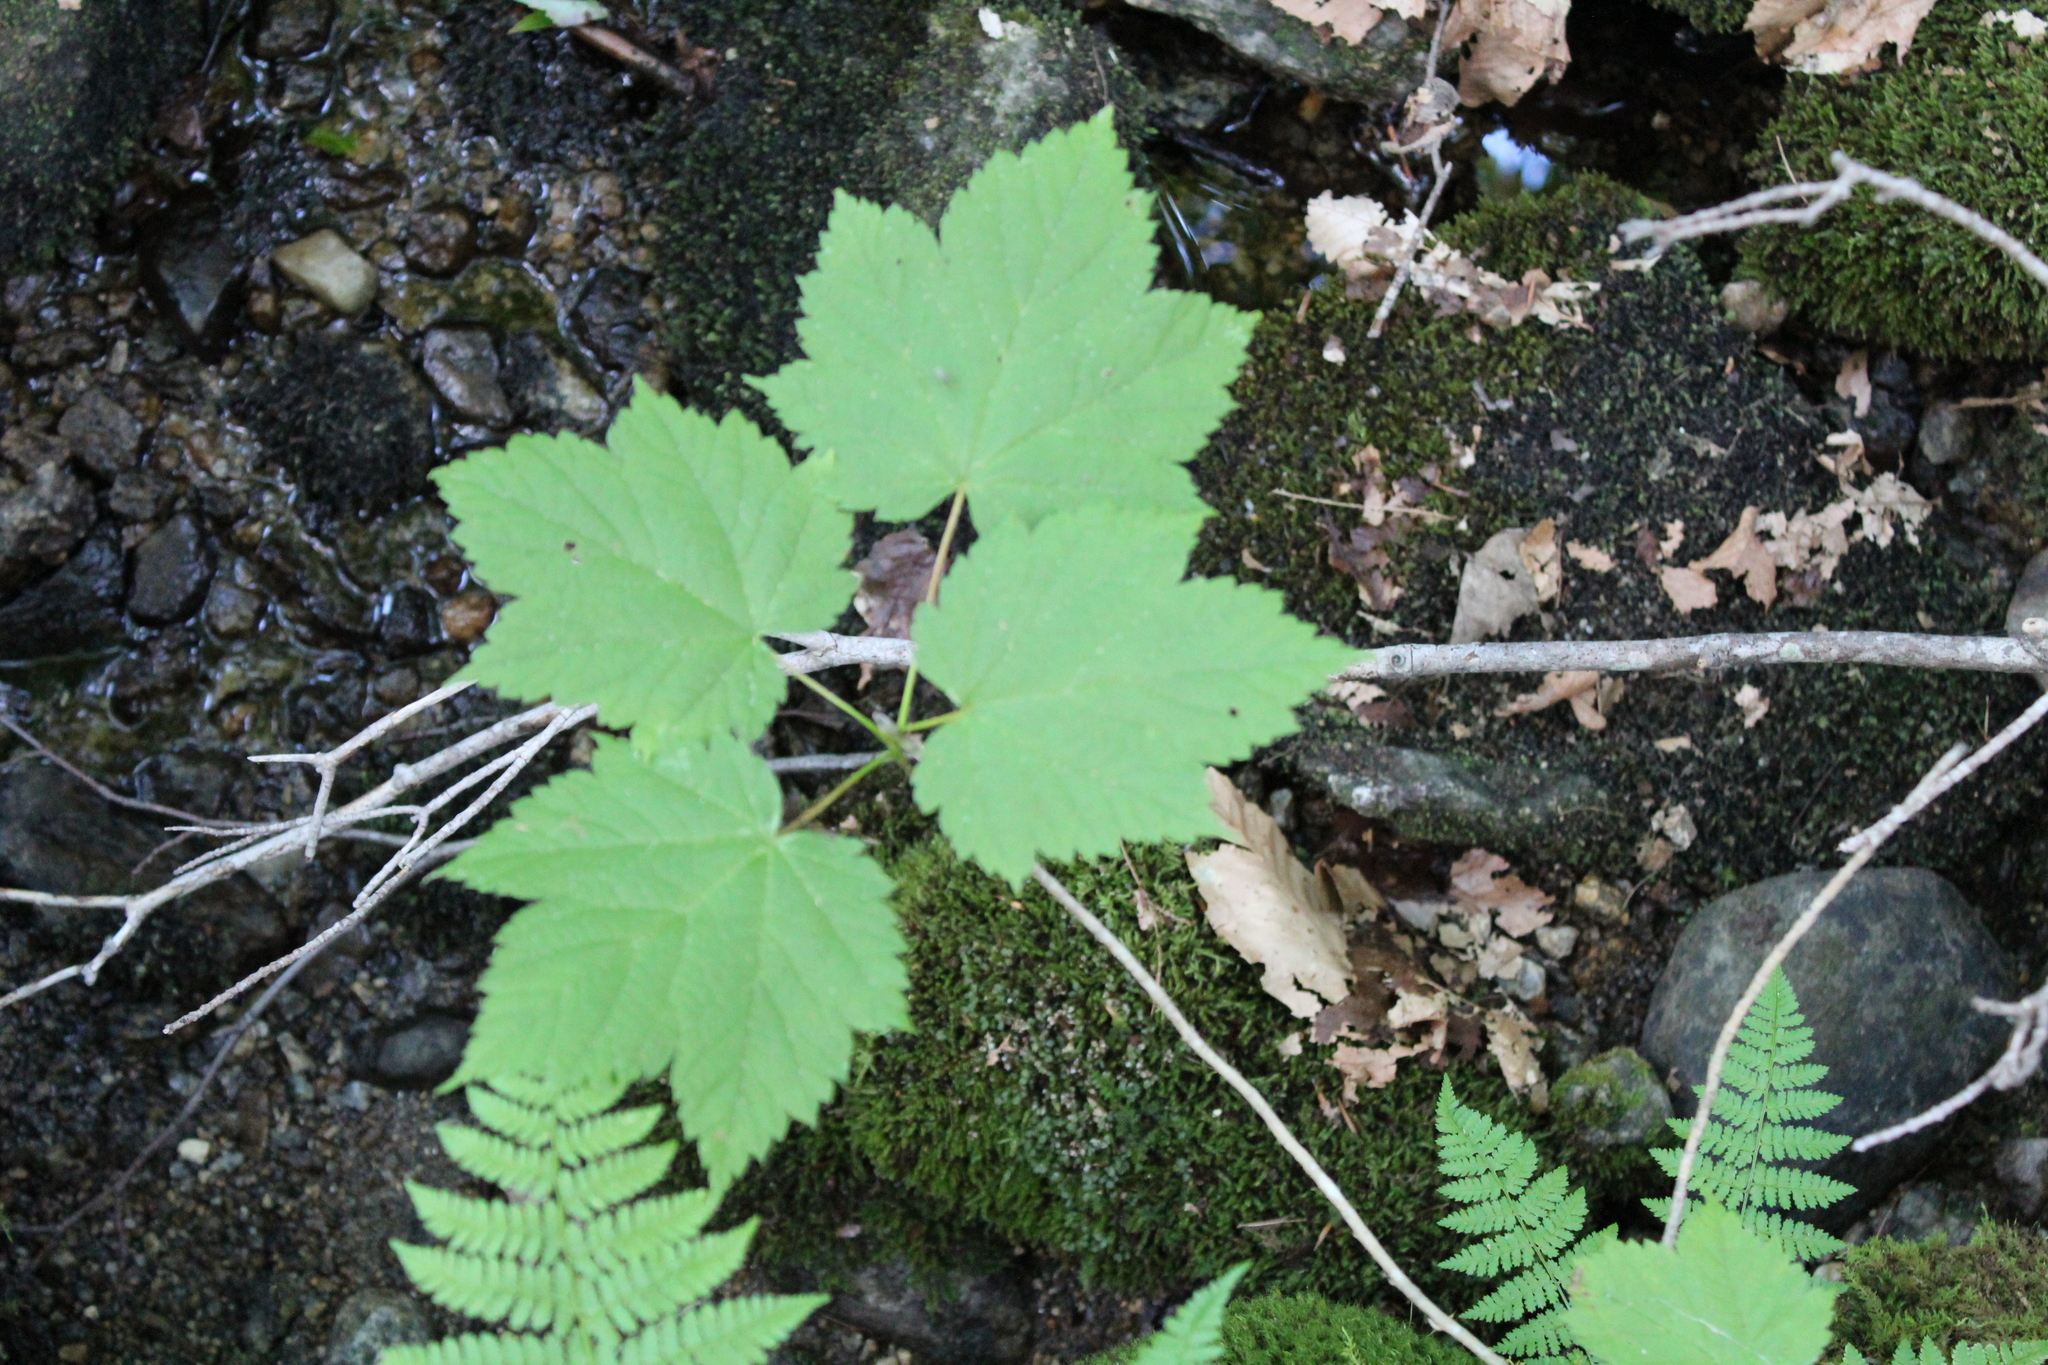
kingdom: Plantae
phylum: Tracheophyta
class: Magnoliopsida
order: Sapindales
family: Sapindaceae
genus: Acer
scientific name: Acer spicatum
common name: Mountain maple
